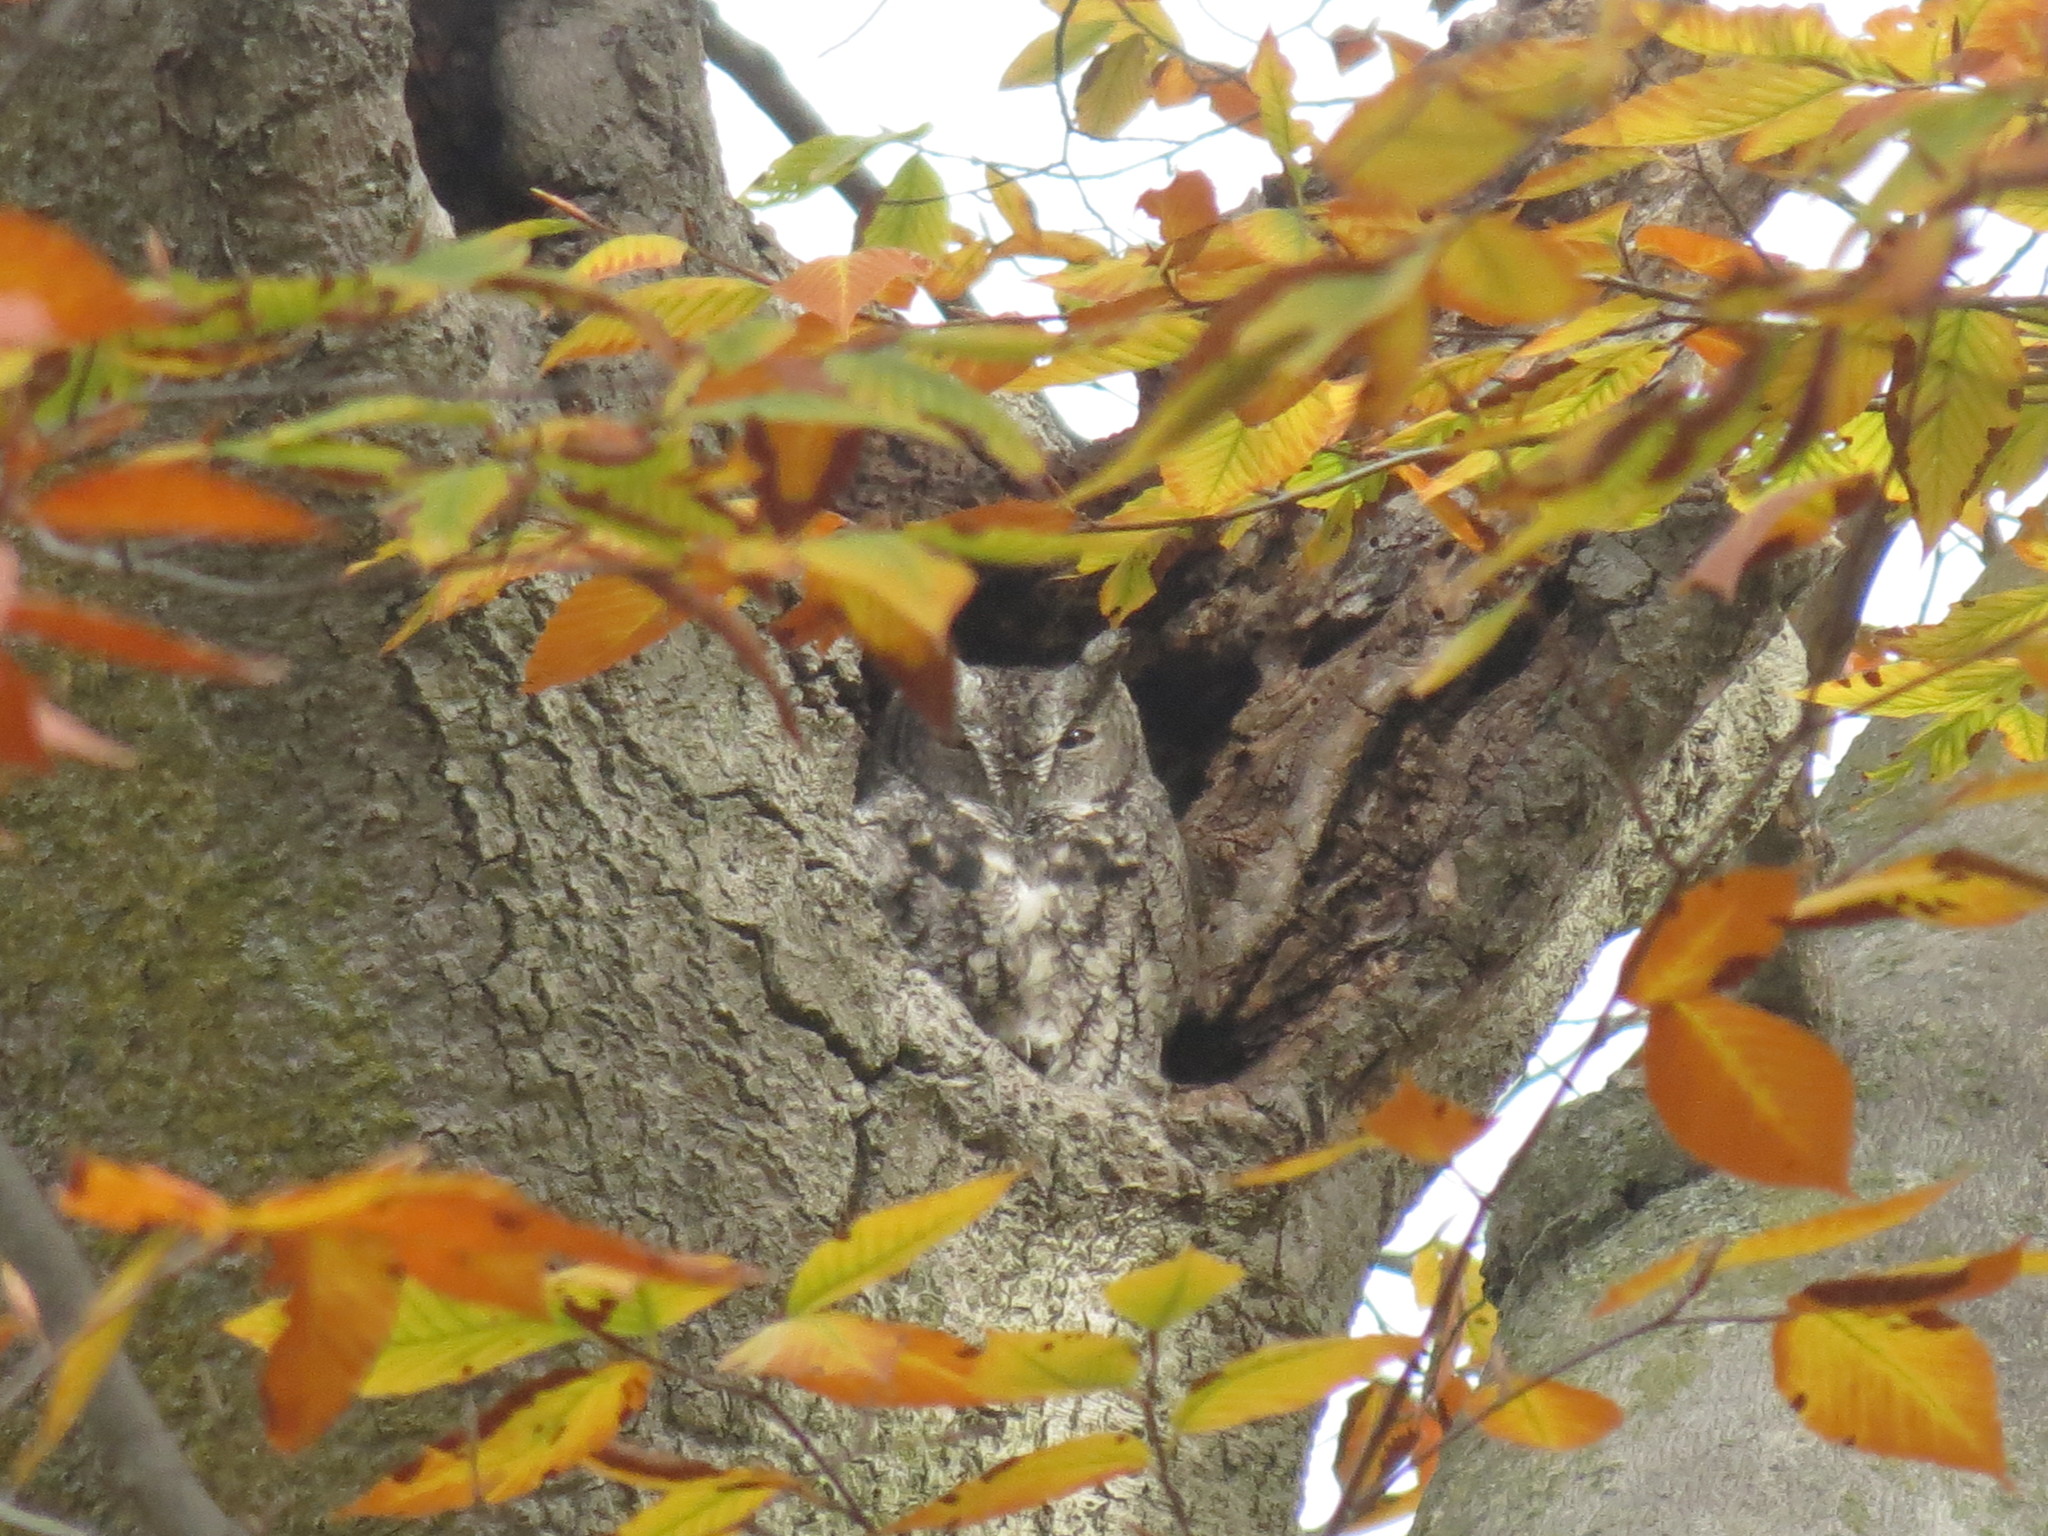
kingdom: Animalia
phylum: Chordata
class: Aves
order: Strigiformes
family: Strigidae
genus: Megascops
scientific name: Megascops asio
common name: Eastern screech-owl
